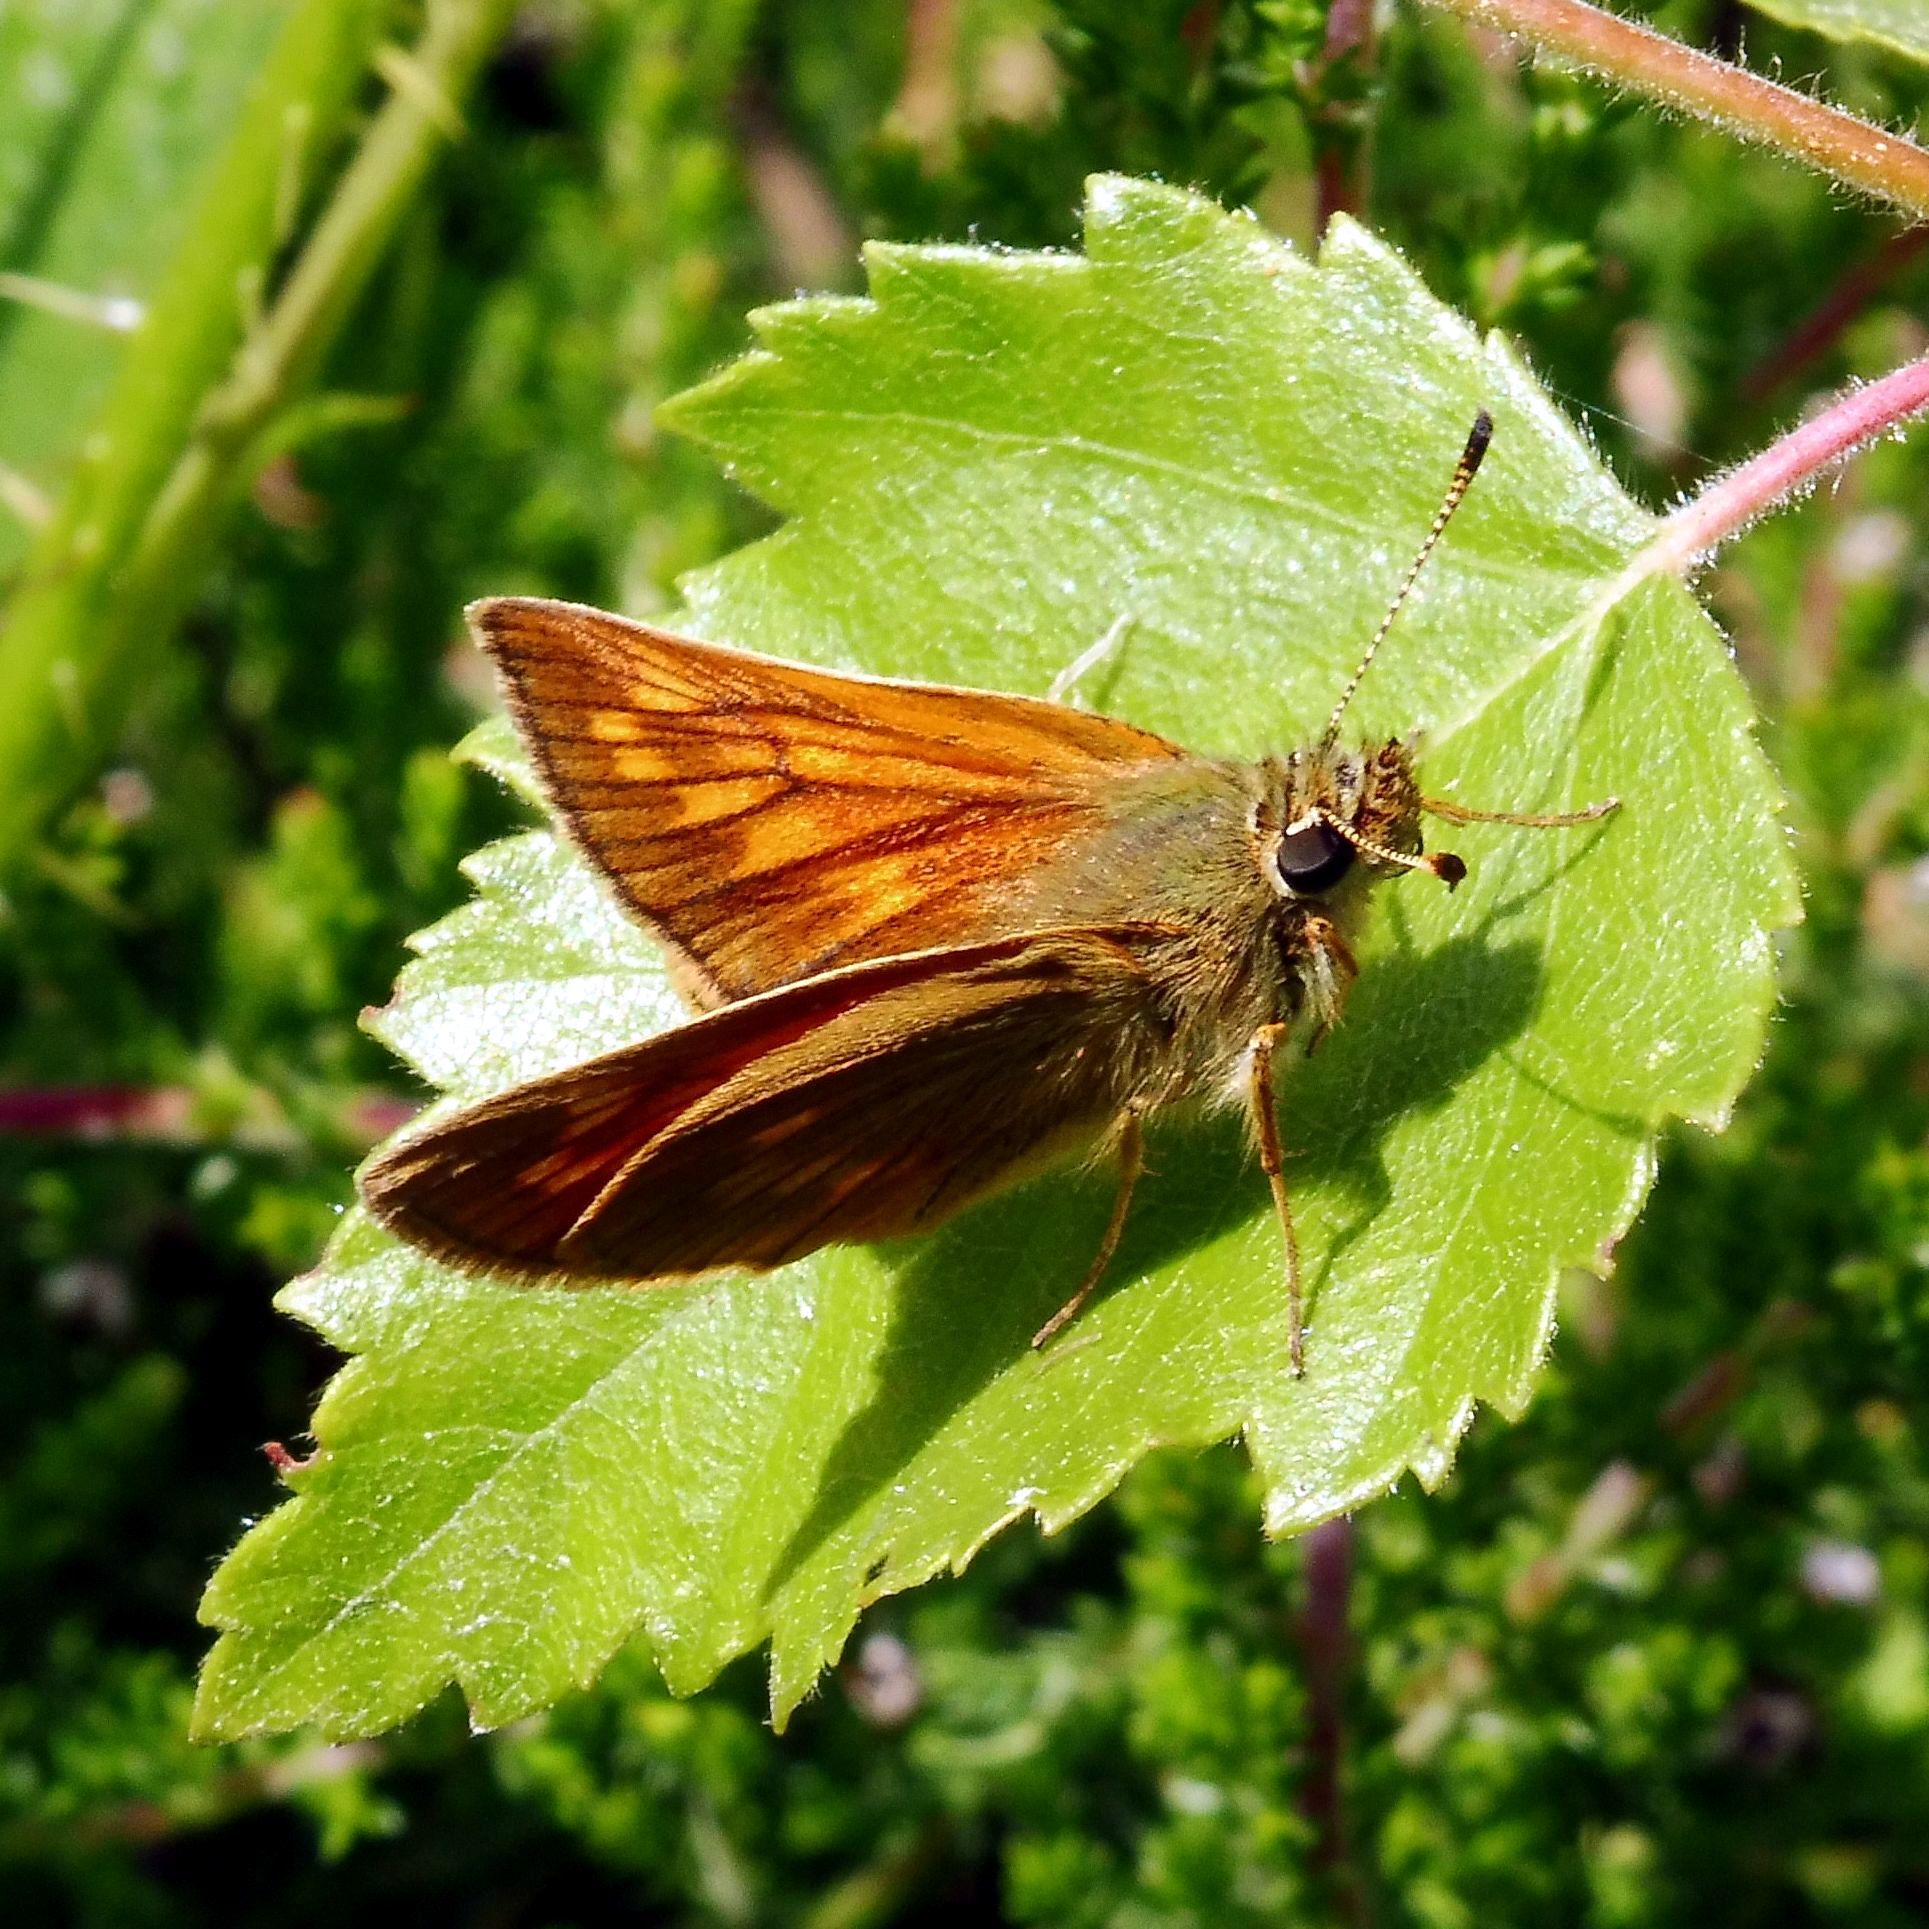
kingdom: Animalia
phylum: Arthropoda
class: Insecta
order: Lepidoptera
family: Hesperiidae
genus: Ochlodes
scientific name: Ochlodes venata
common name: Large skipper
